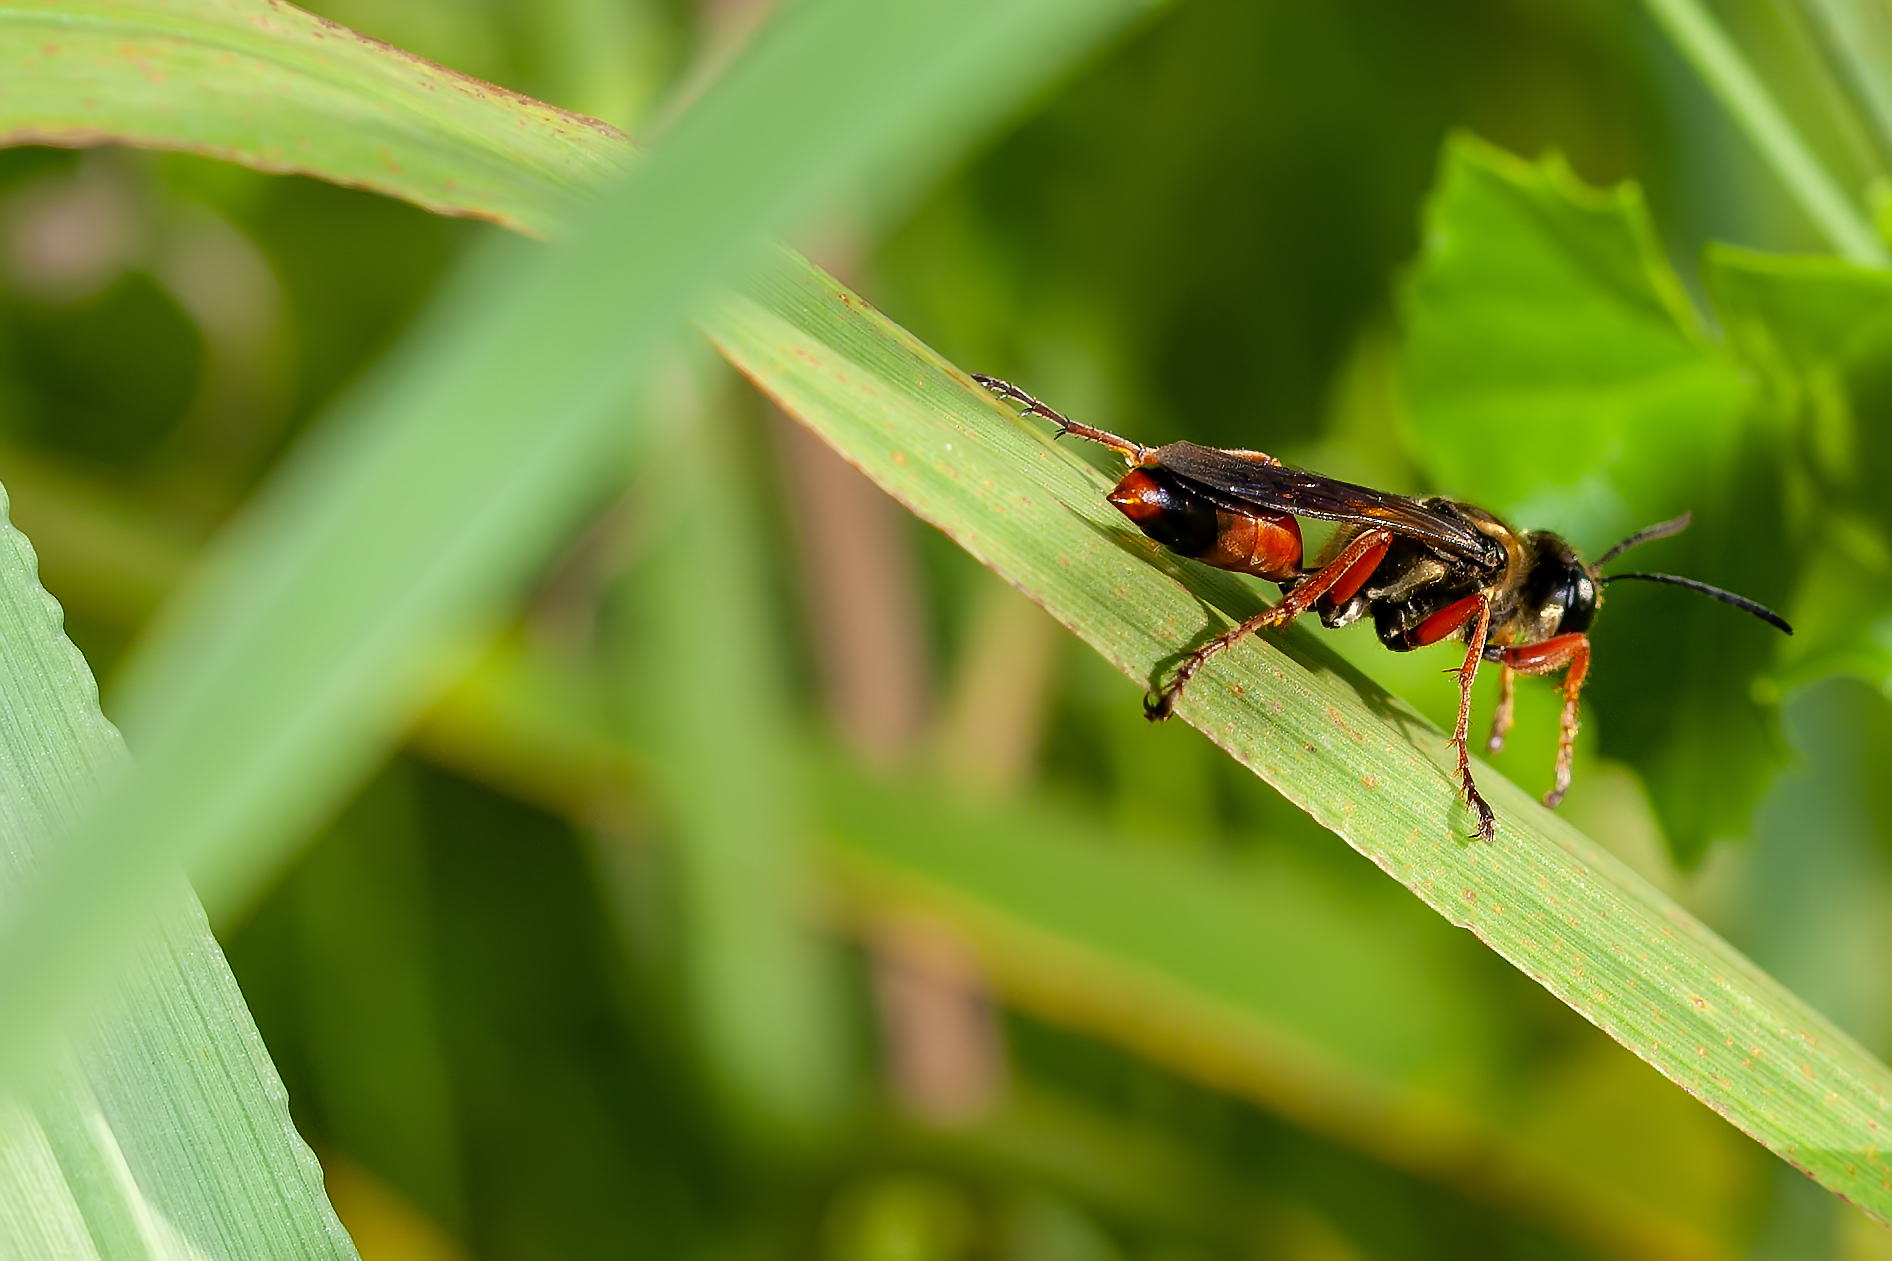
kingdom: Animalia
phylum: Arthropoda
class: Insecta
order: Hymenoptera
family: Sphecidae
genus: Sphex
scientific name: Sphex dorsalis
